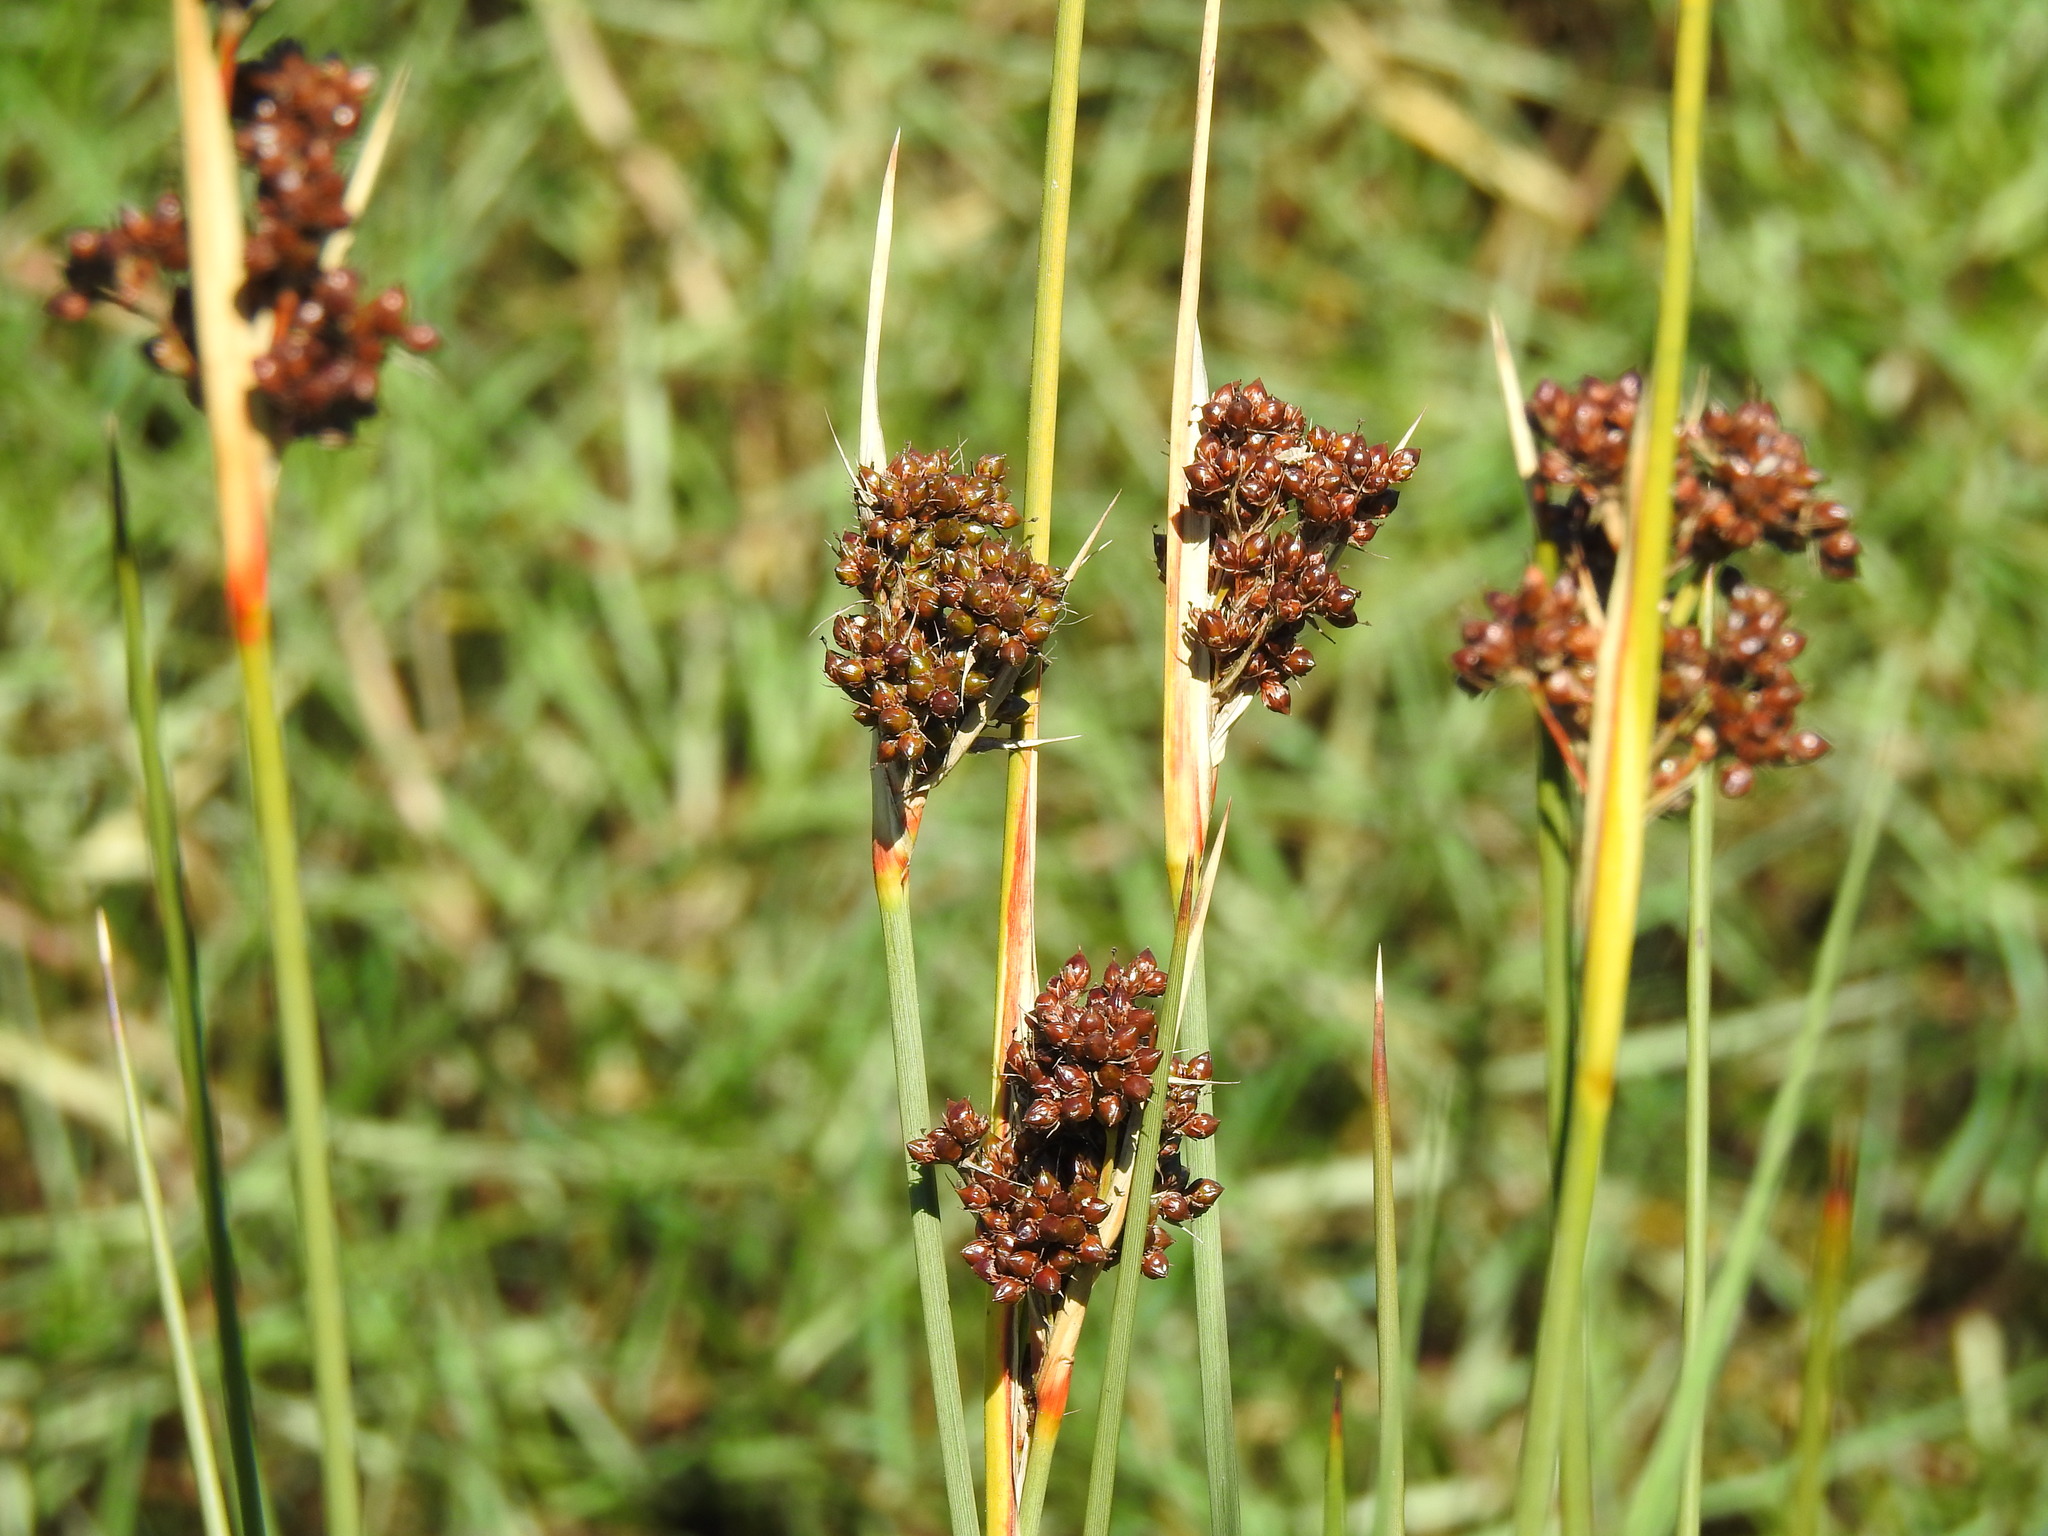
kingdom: Plantae
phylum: Tracheophyta
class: Liliopsida
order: Poales
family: Juncaceae
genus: Juncus
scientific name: Juncus acutus
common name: Sharp rush
